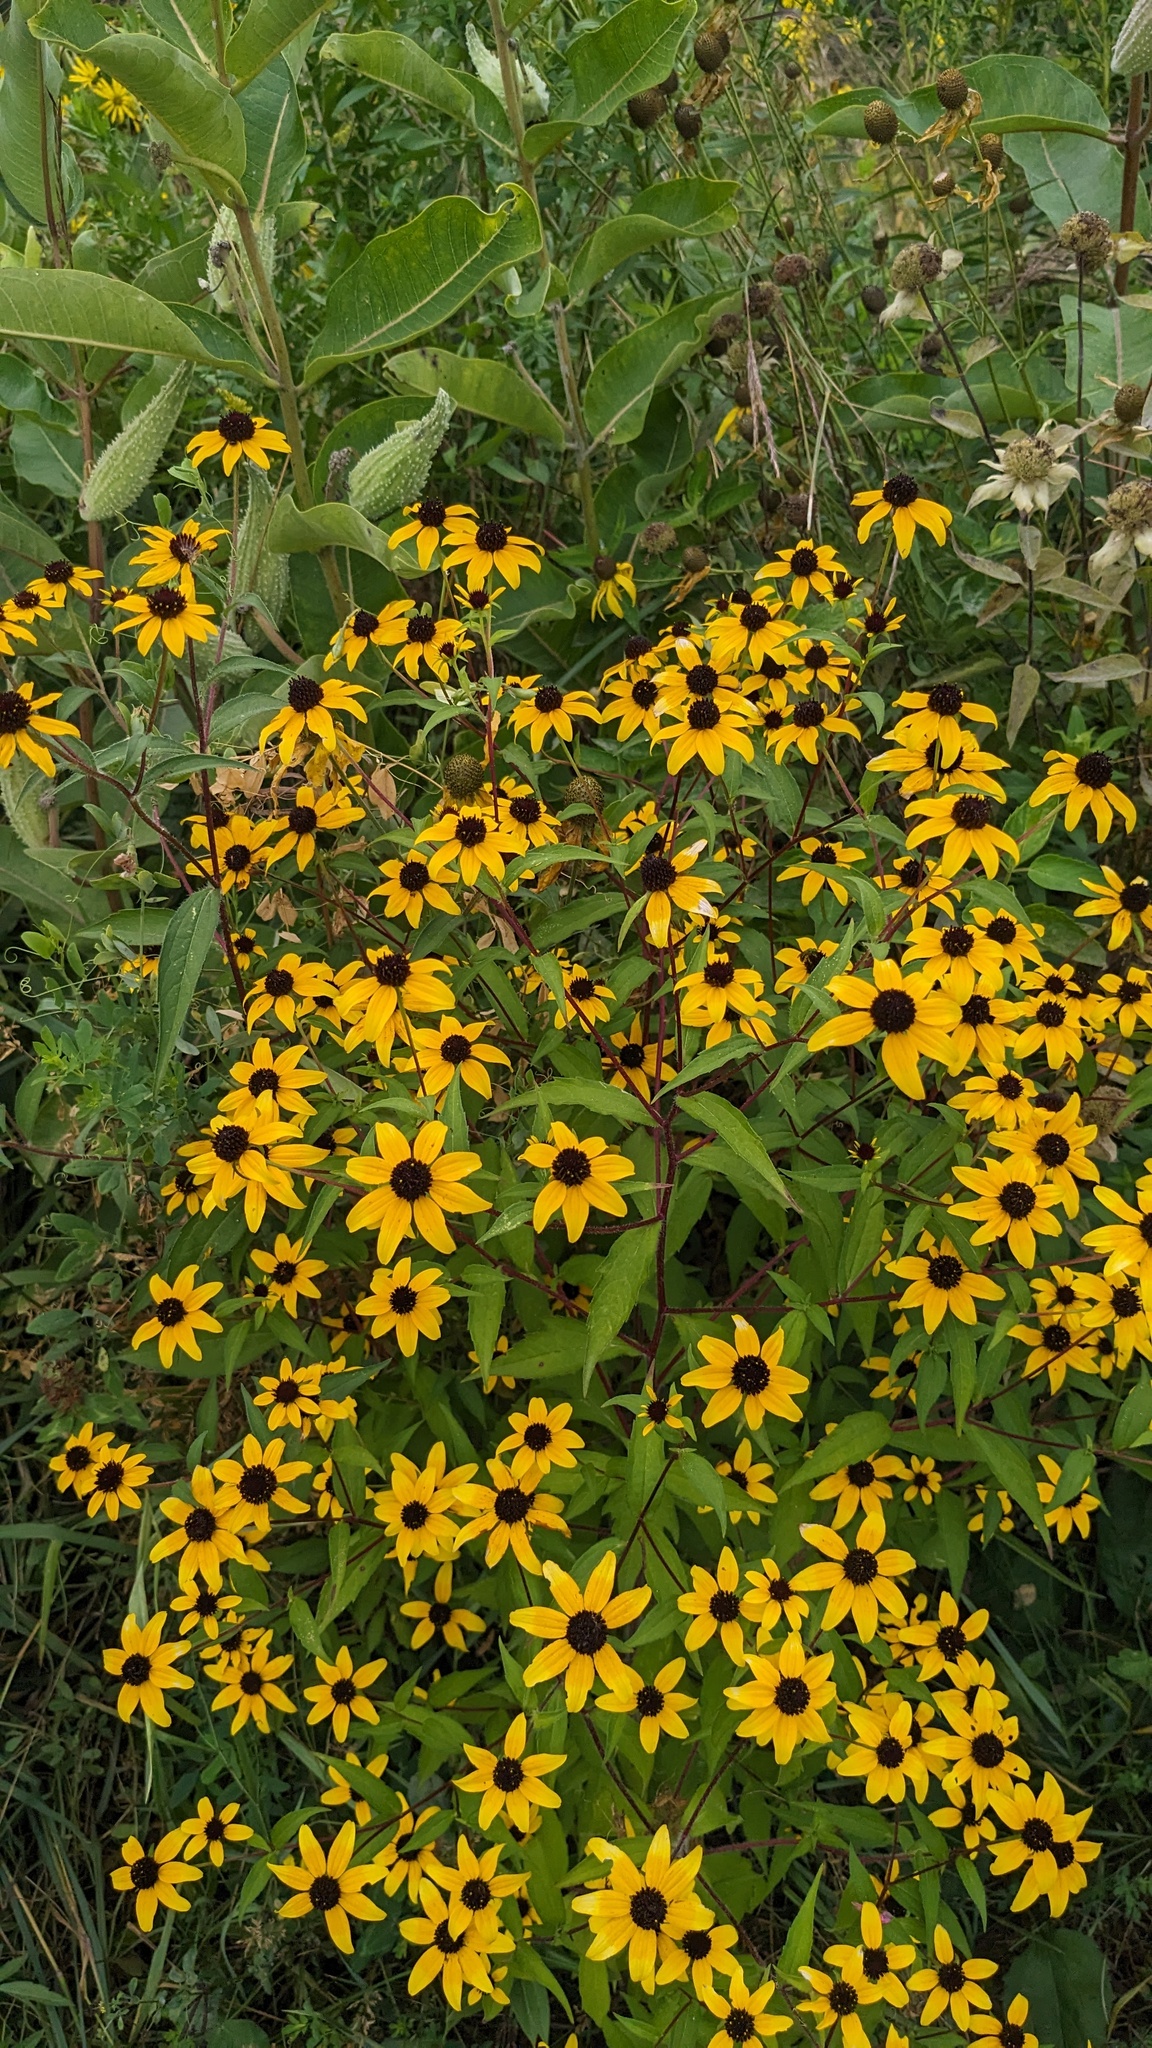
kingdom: Plantae
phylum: Tracheophyta
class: Magnoliopsida
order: Asterales
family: Asteraceae
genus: Rudbeckia
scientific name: Rudbeckia triloba
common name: Thin-leaved coneflower
